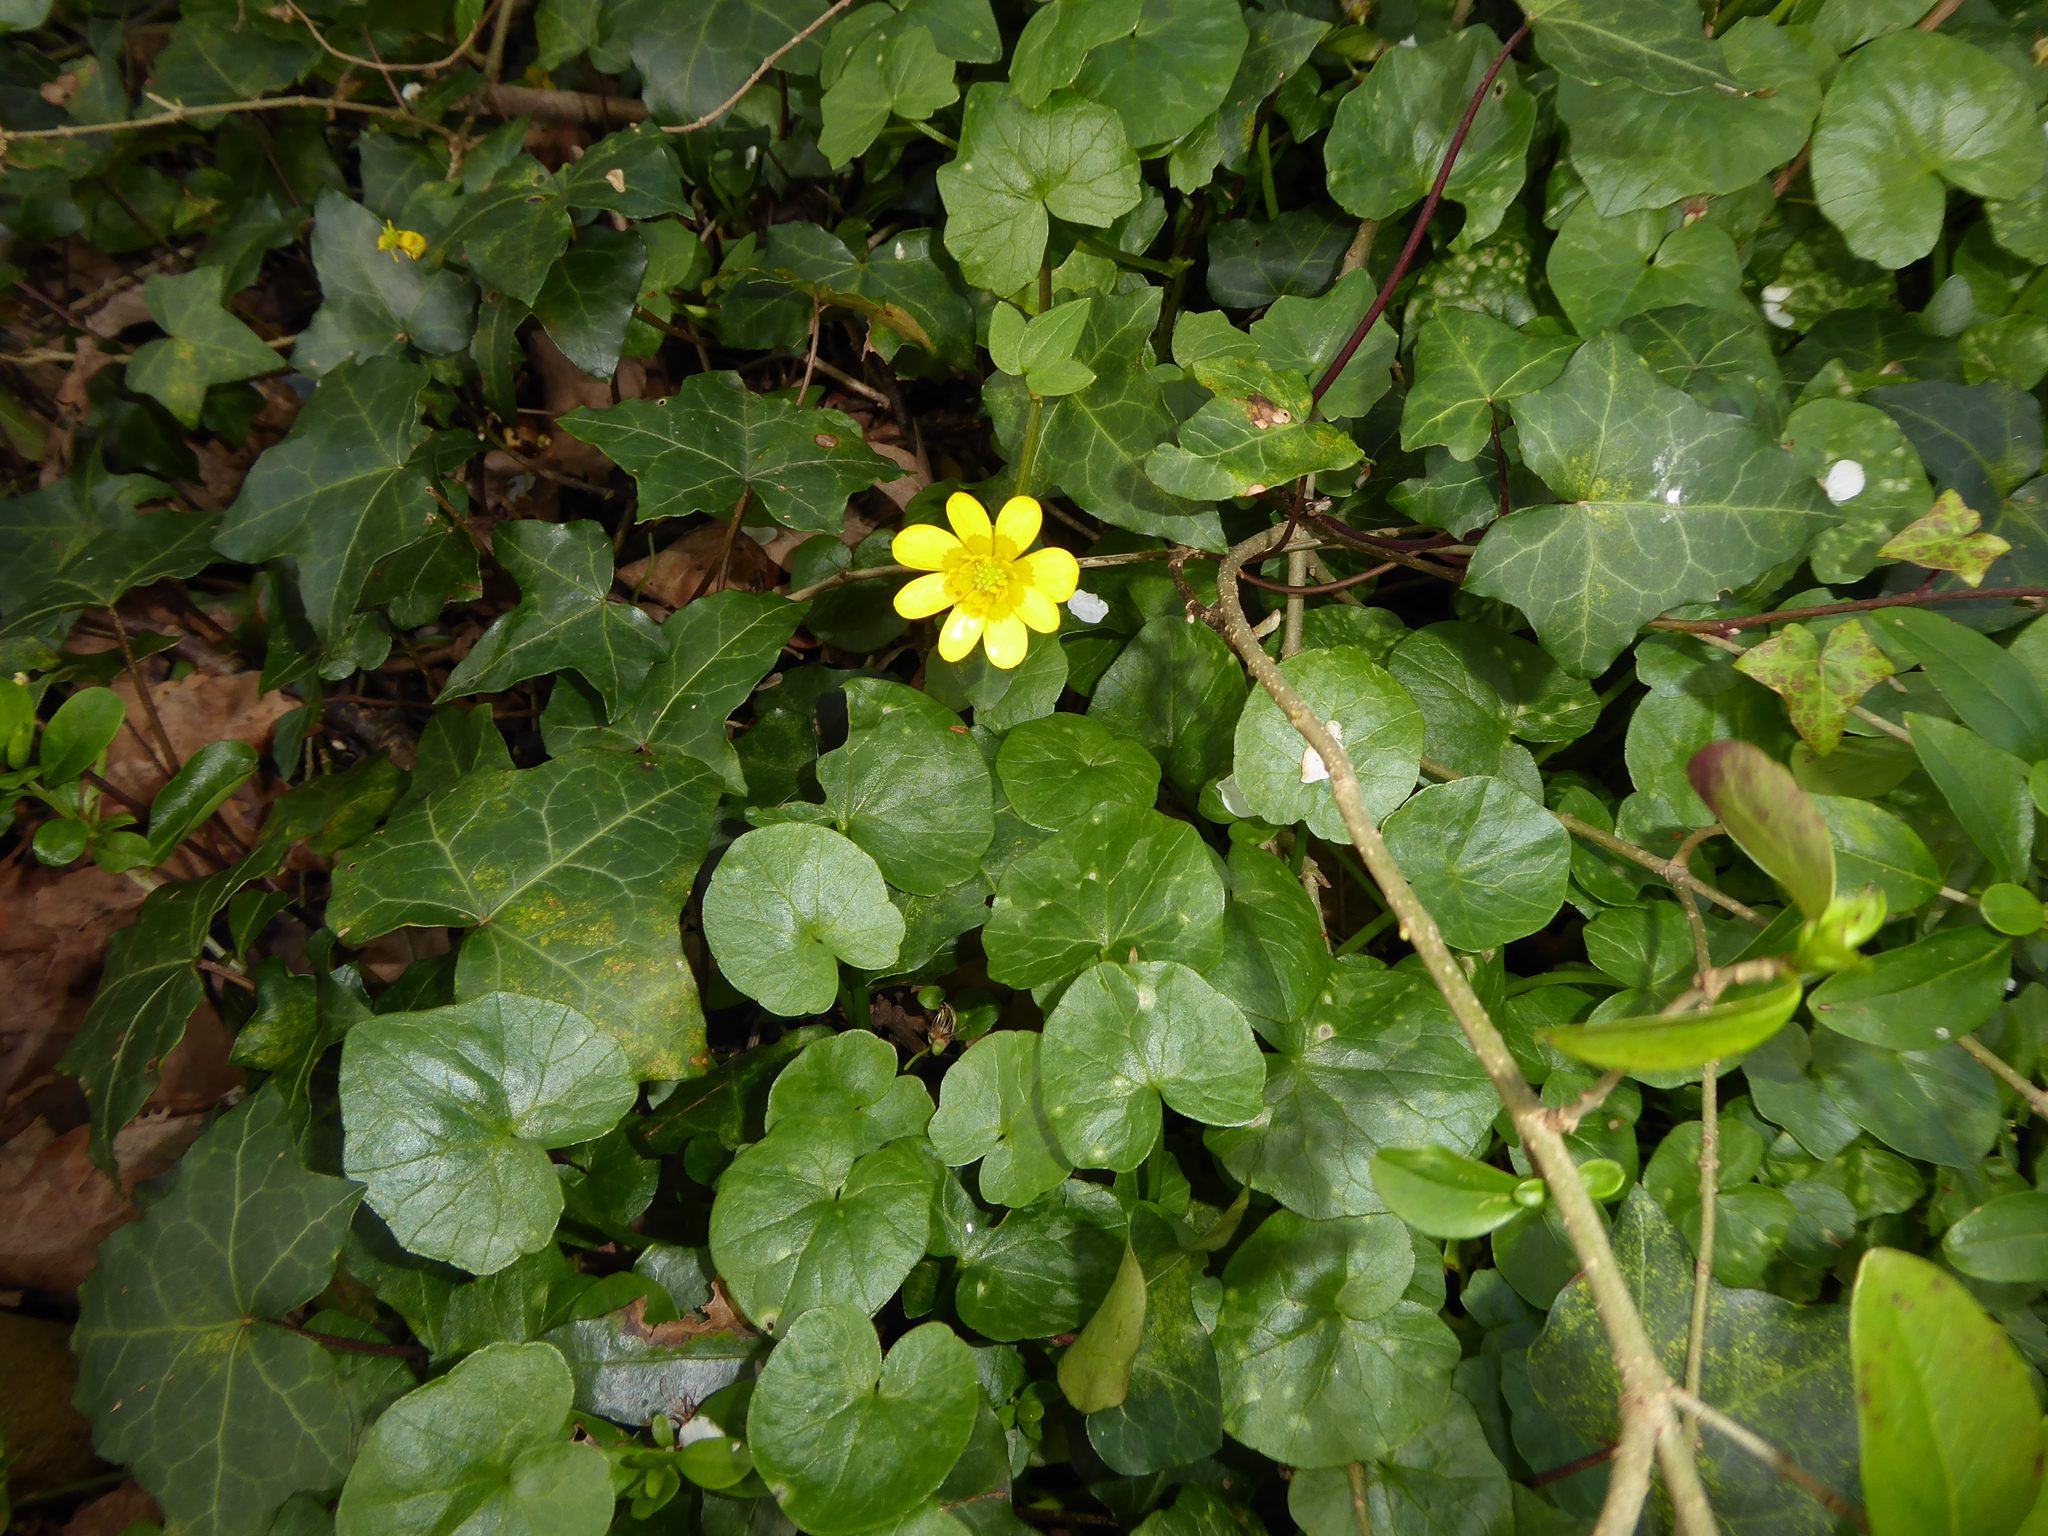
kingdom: Plantae
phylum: Tracheophyta
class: Magnoliopsida
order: Ranunculales
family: Ranunculaceae
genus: Ficaria
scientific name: Ficaria verna
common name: Lesser celandine
